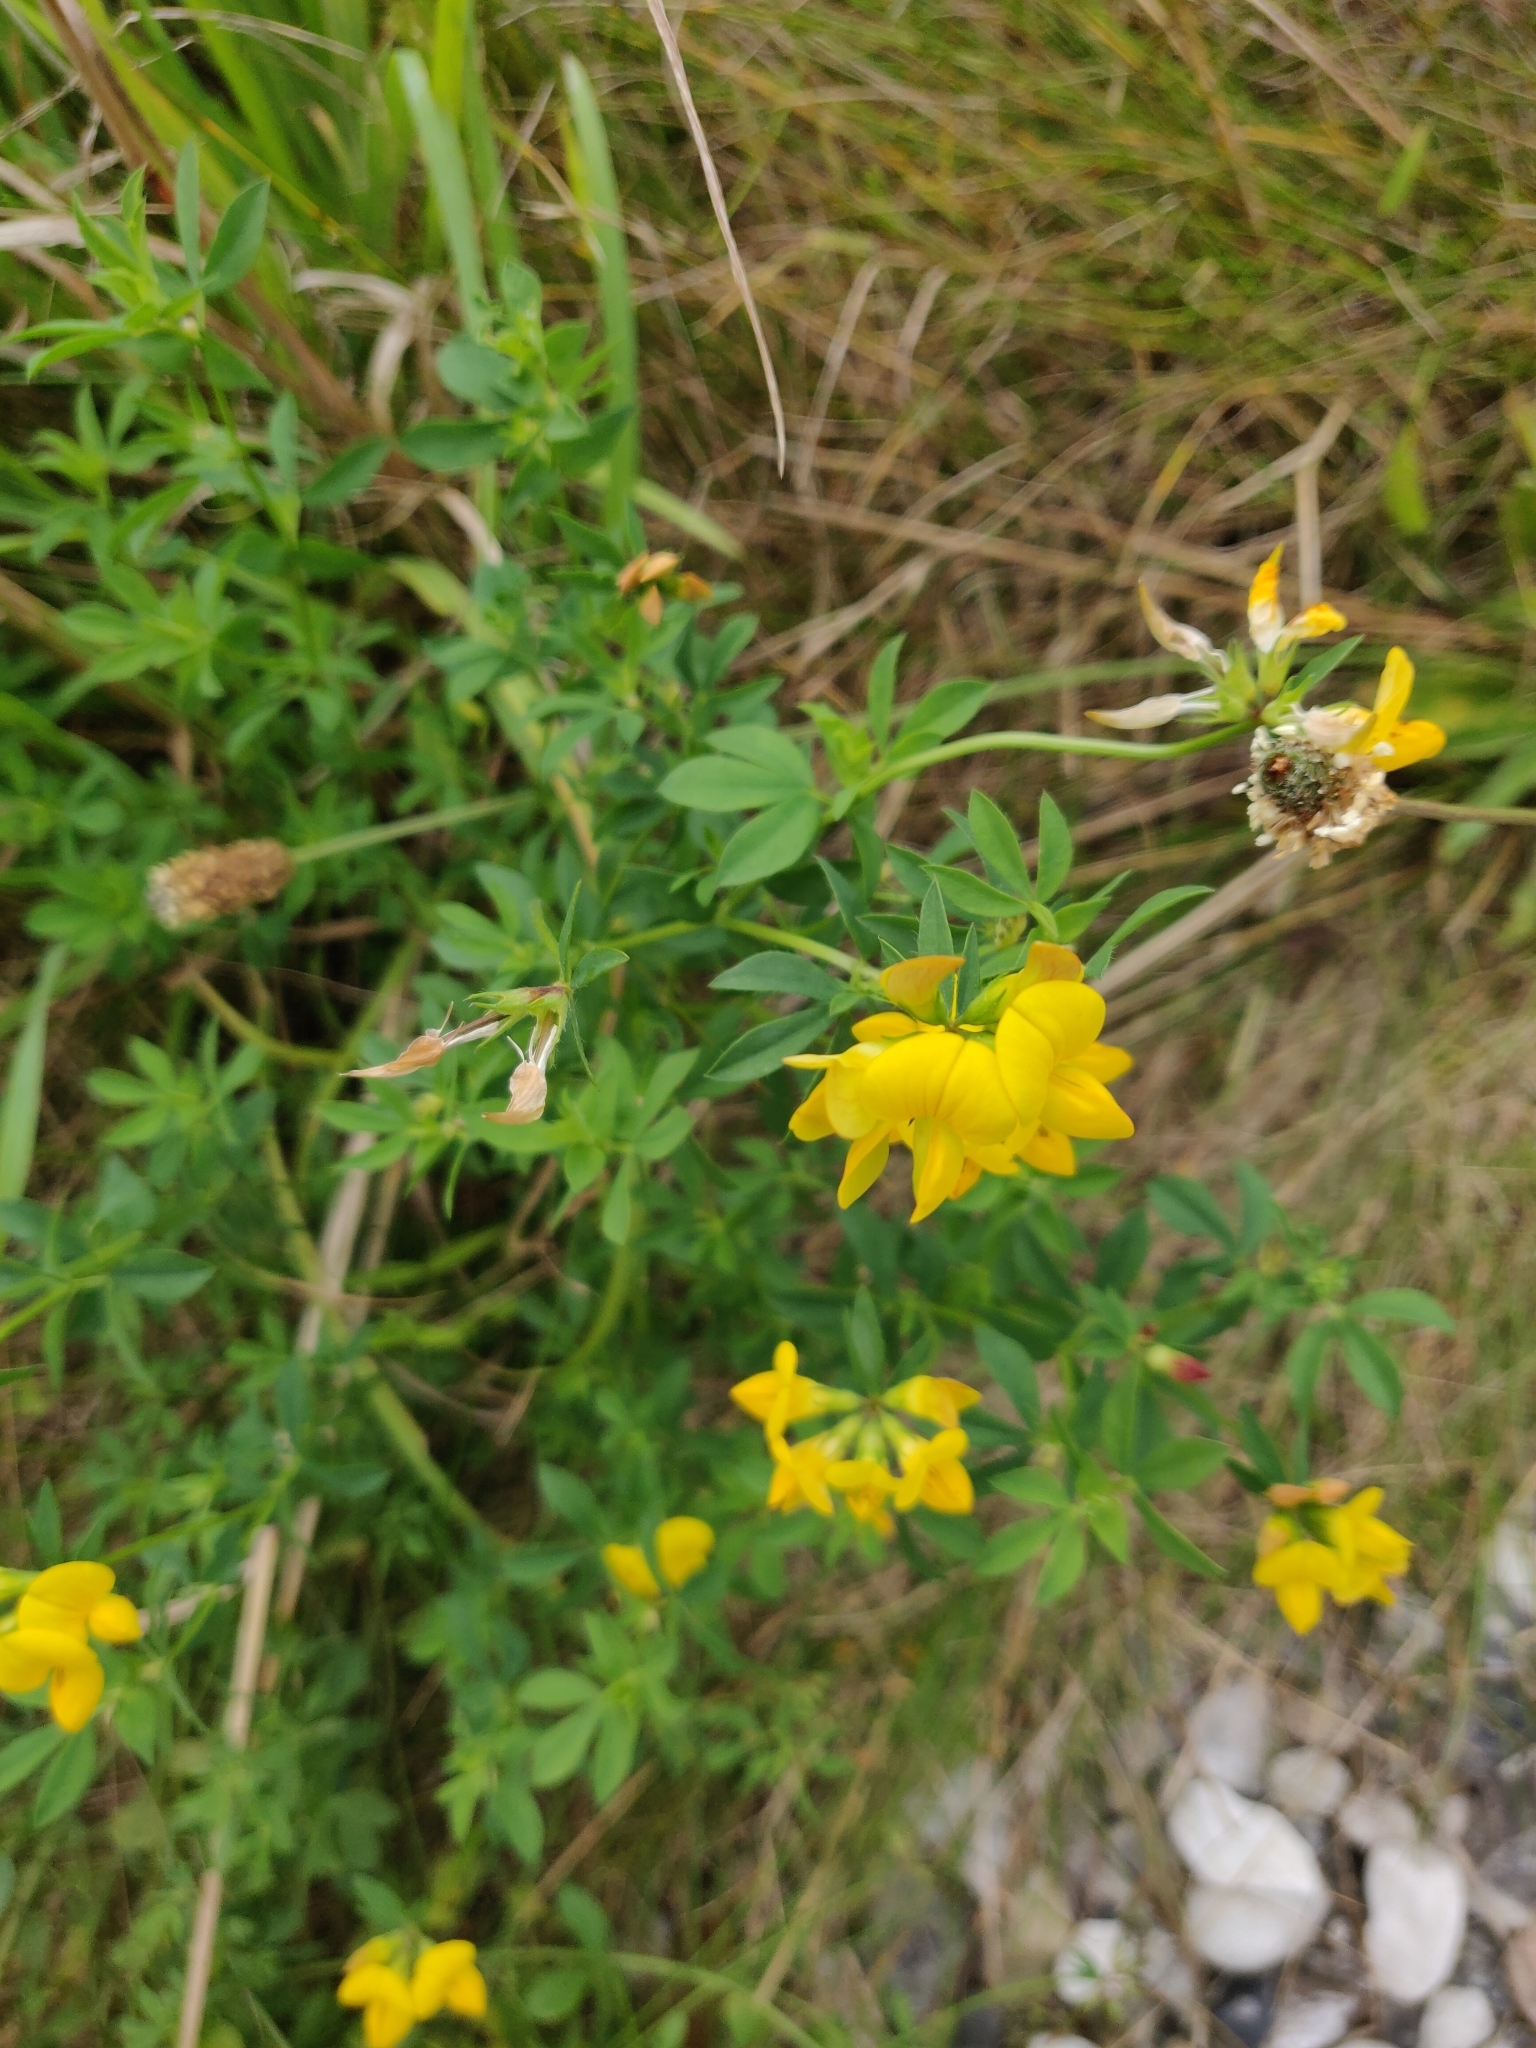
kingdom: Plantae
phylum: Tracheophyta
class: Magnoliopsida
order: Fabales
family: Fabaceae
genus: Lotus
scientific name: Lotus corniculatus
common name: Common bird's-foot-trefoil
